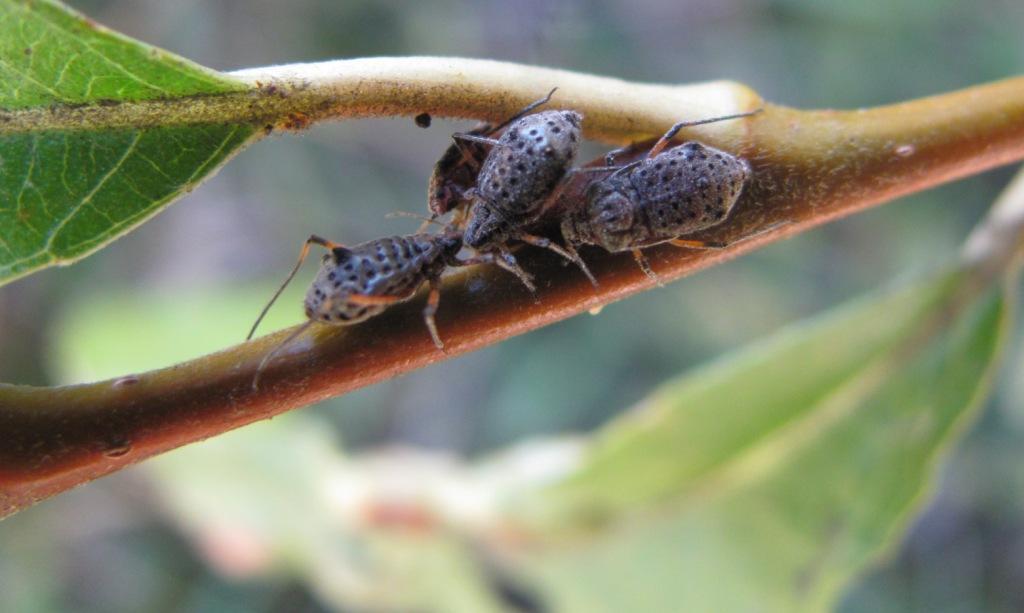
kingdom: Animalia
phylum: Arthropoda
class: Insecta
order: Hemiptera
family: Aphididae
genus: Tuberolachnus
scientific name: Tuberolachnus salignus
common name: Giant willow aphid
